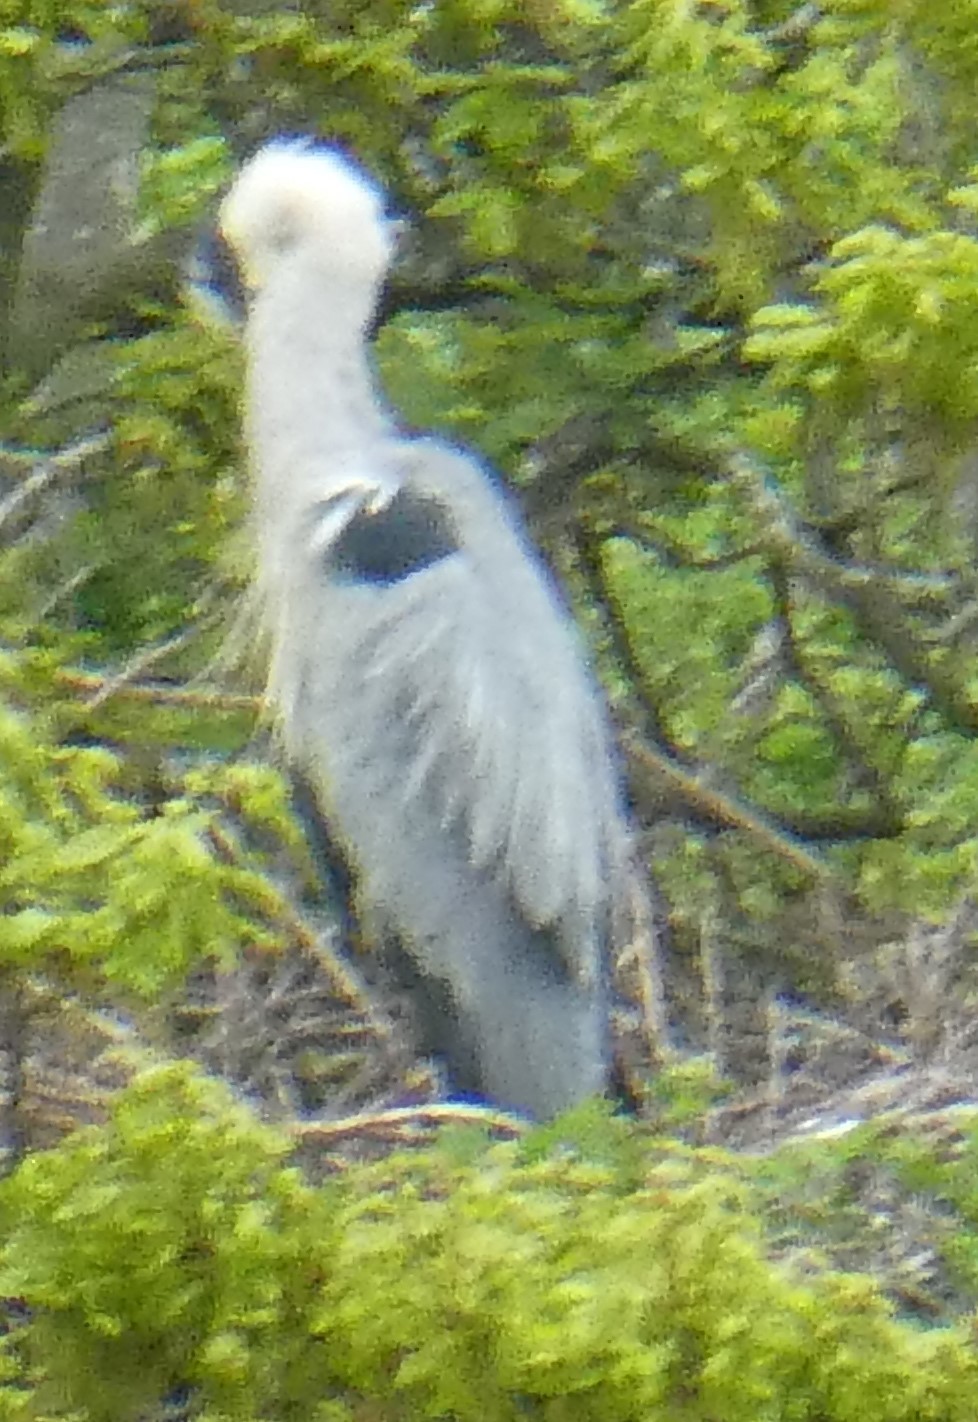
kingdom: Animalia
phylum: Chordata
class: Aves
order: Pelecaniformes
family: Ardeidae
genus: Ardea
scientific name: Ardea cinerea
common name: Grey heron
